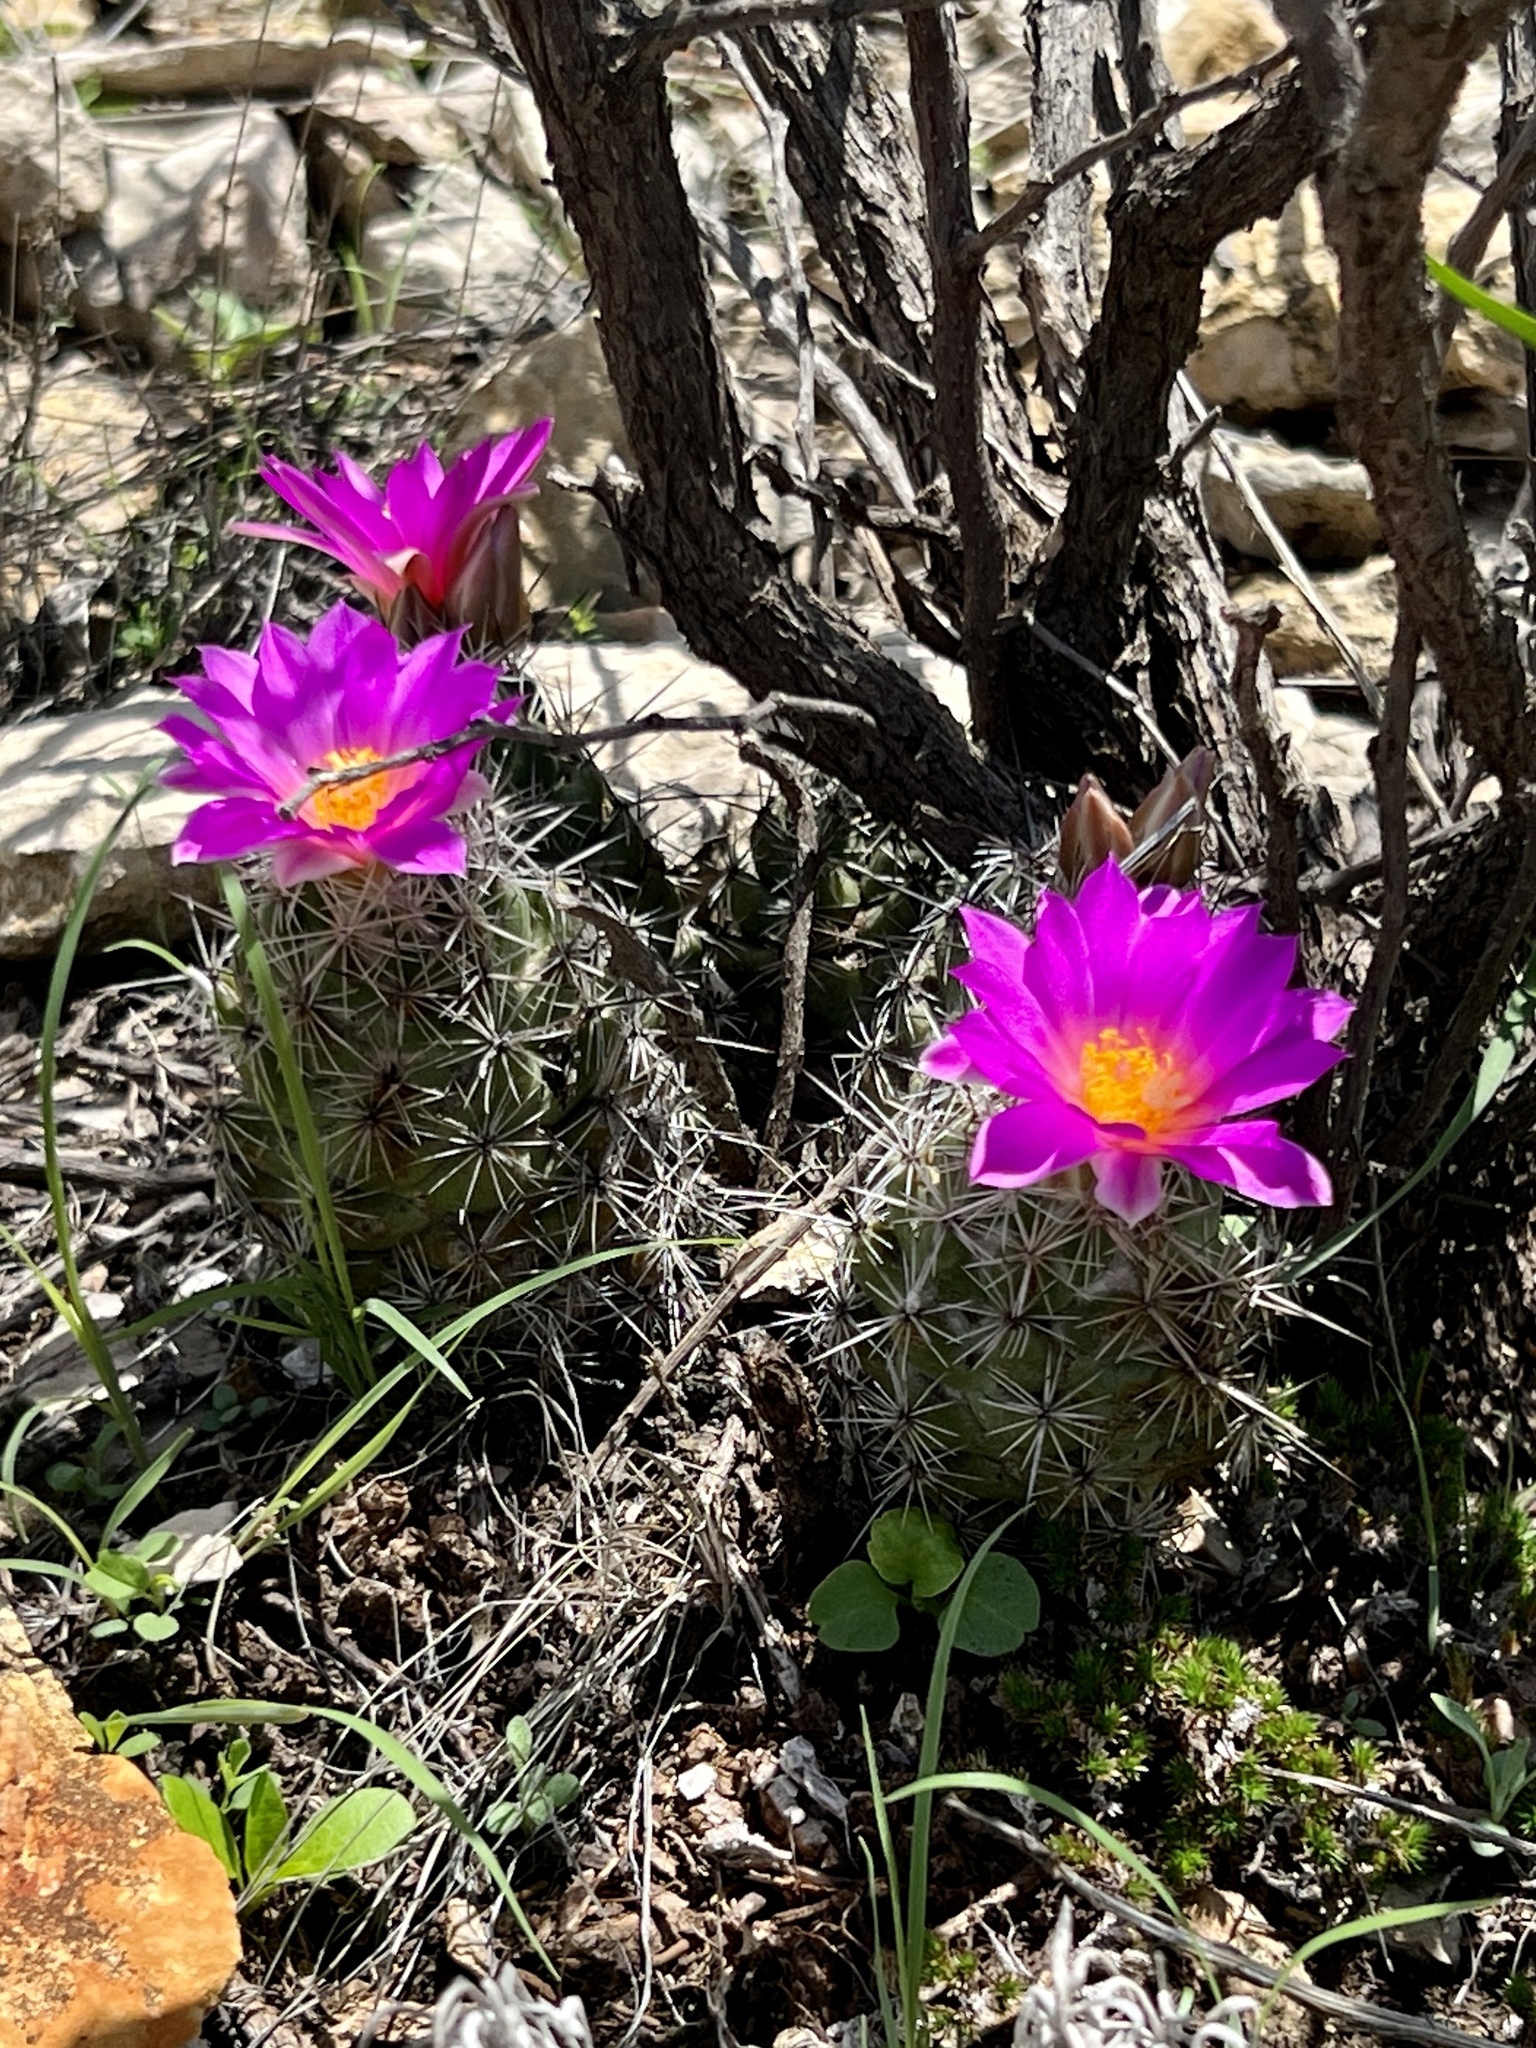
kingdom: Plantae
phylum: Tracheophyta
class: Magnoliopsida
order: Caryophyllales
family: Cactaceae
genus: Cochemiea
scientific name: Cochemiea conoidea
